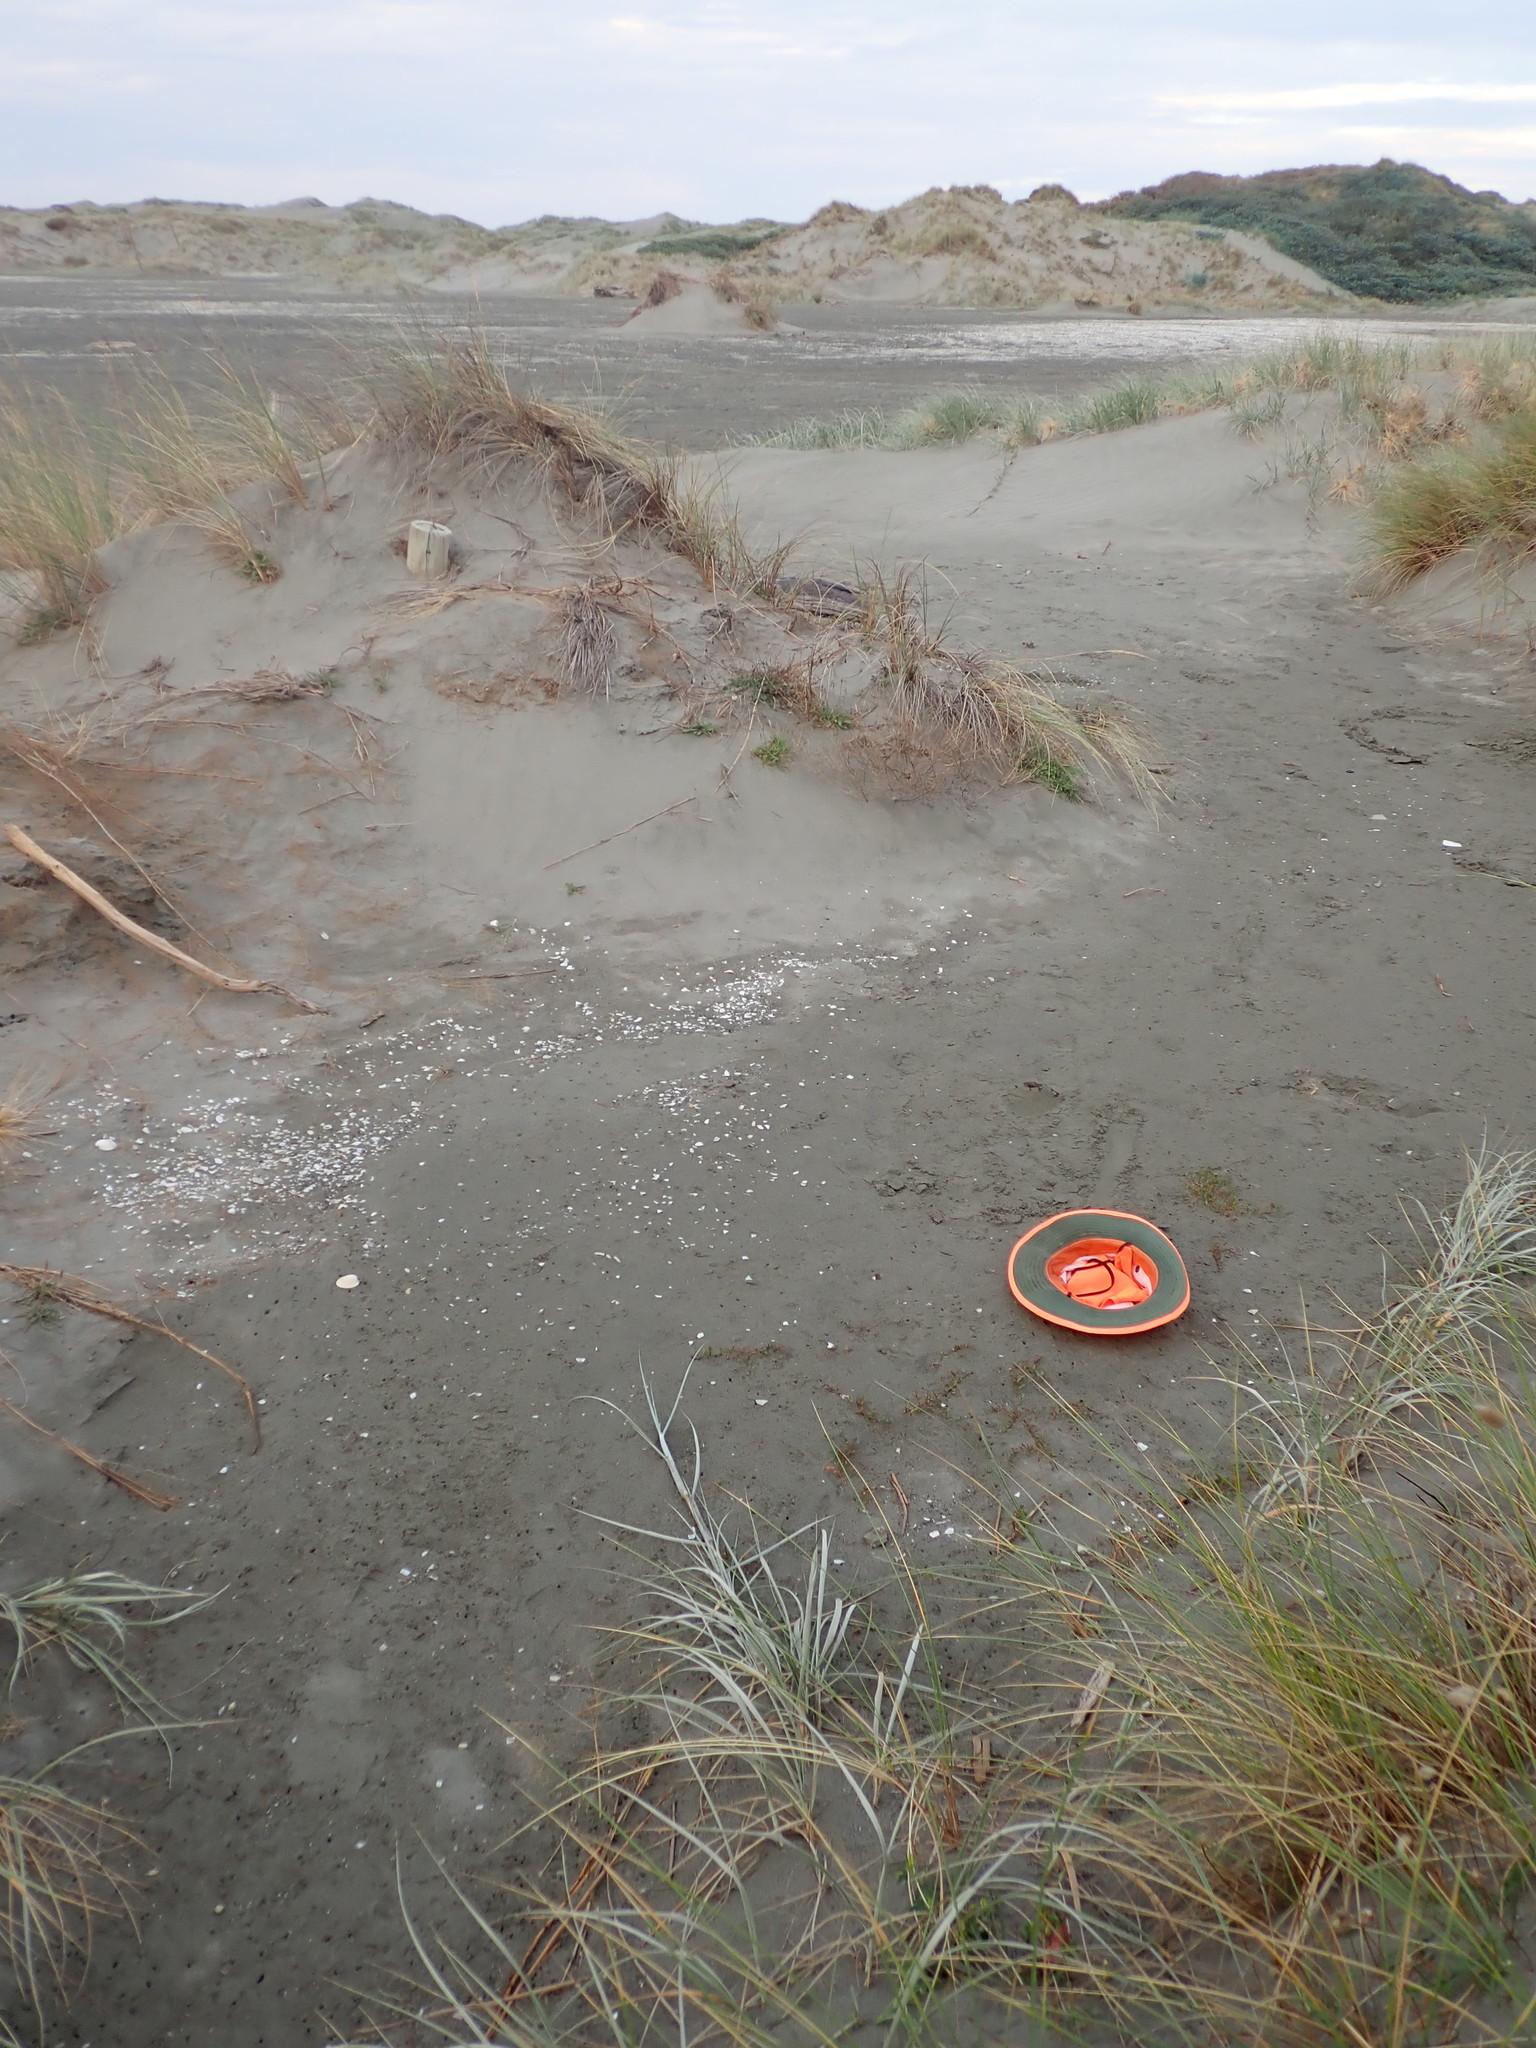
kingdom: Plantae
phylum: Tracheophyta
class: Magnoliopsida
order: Asterales
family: Goodeniaceae
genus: Goodenia
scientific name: Goodenia radicans
